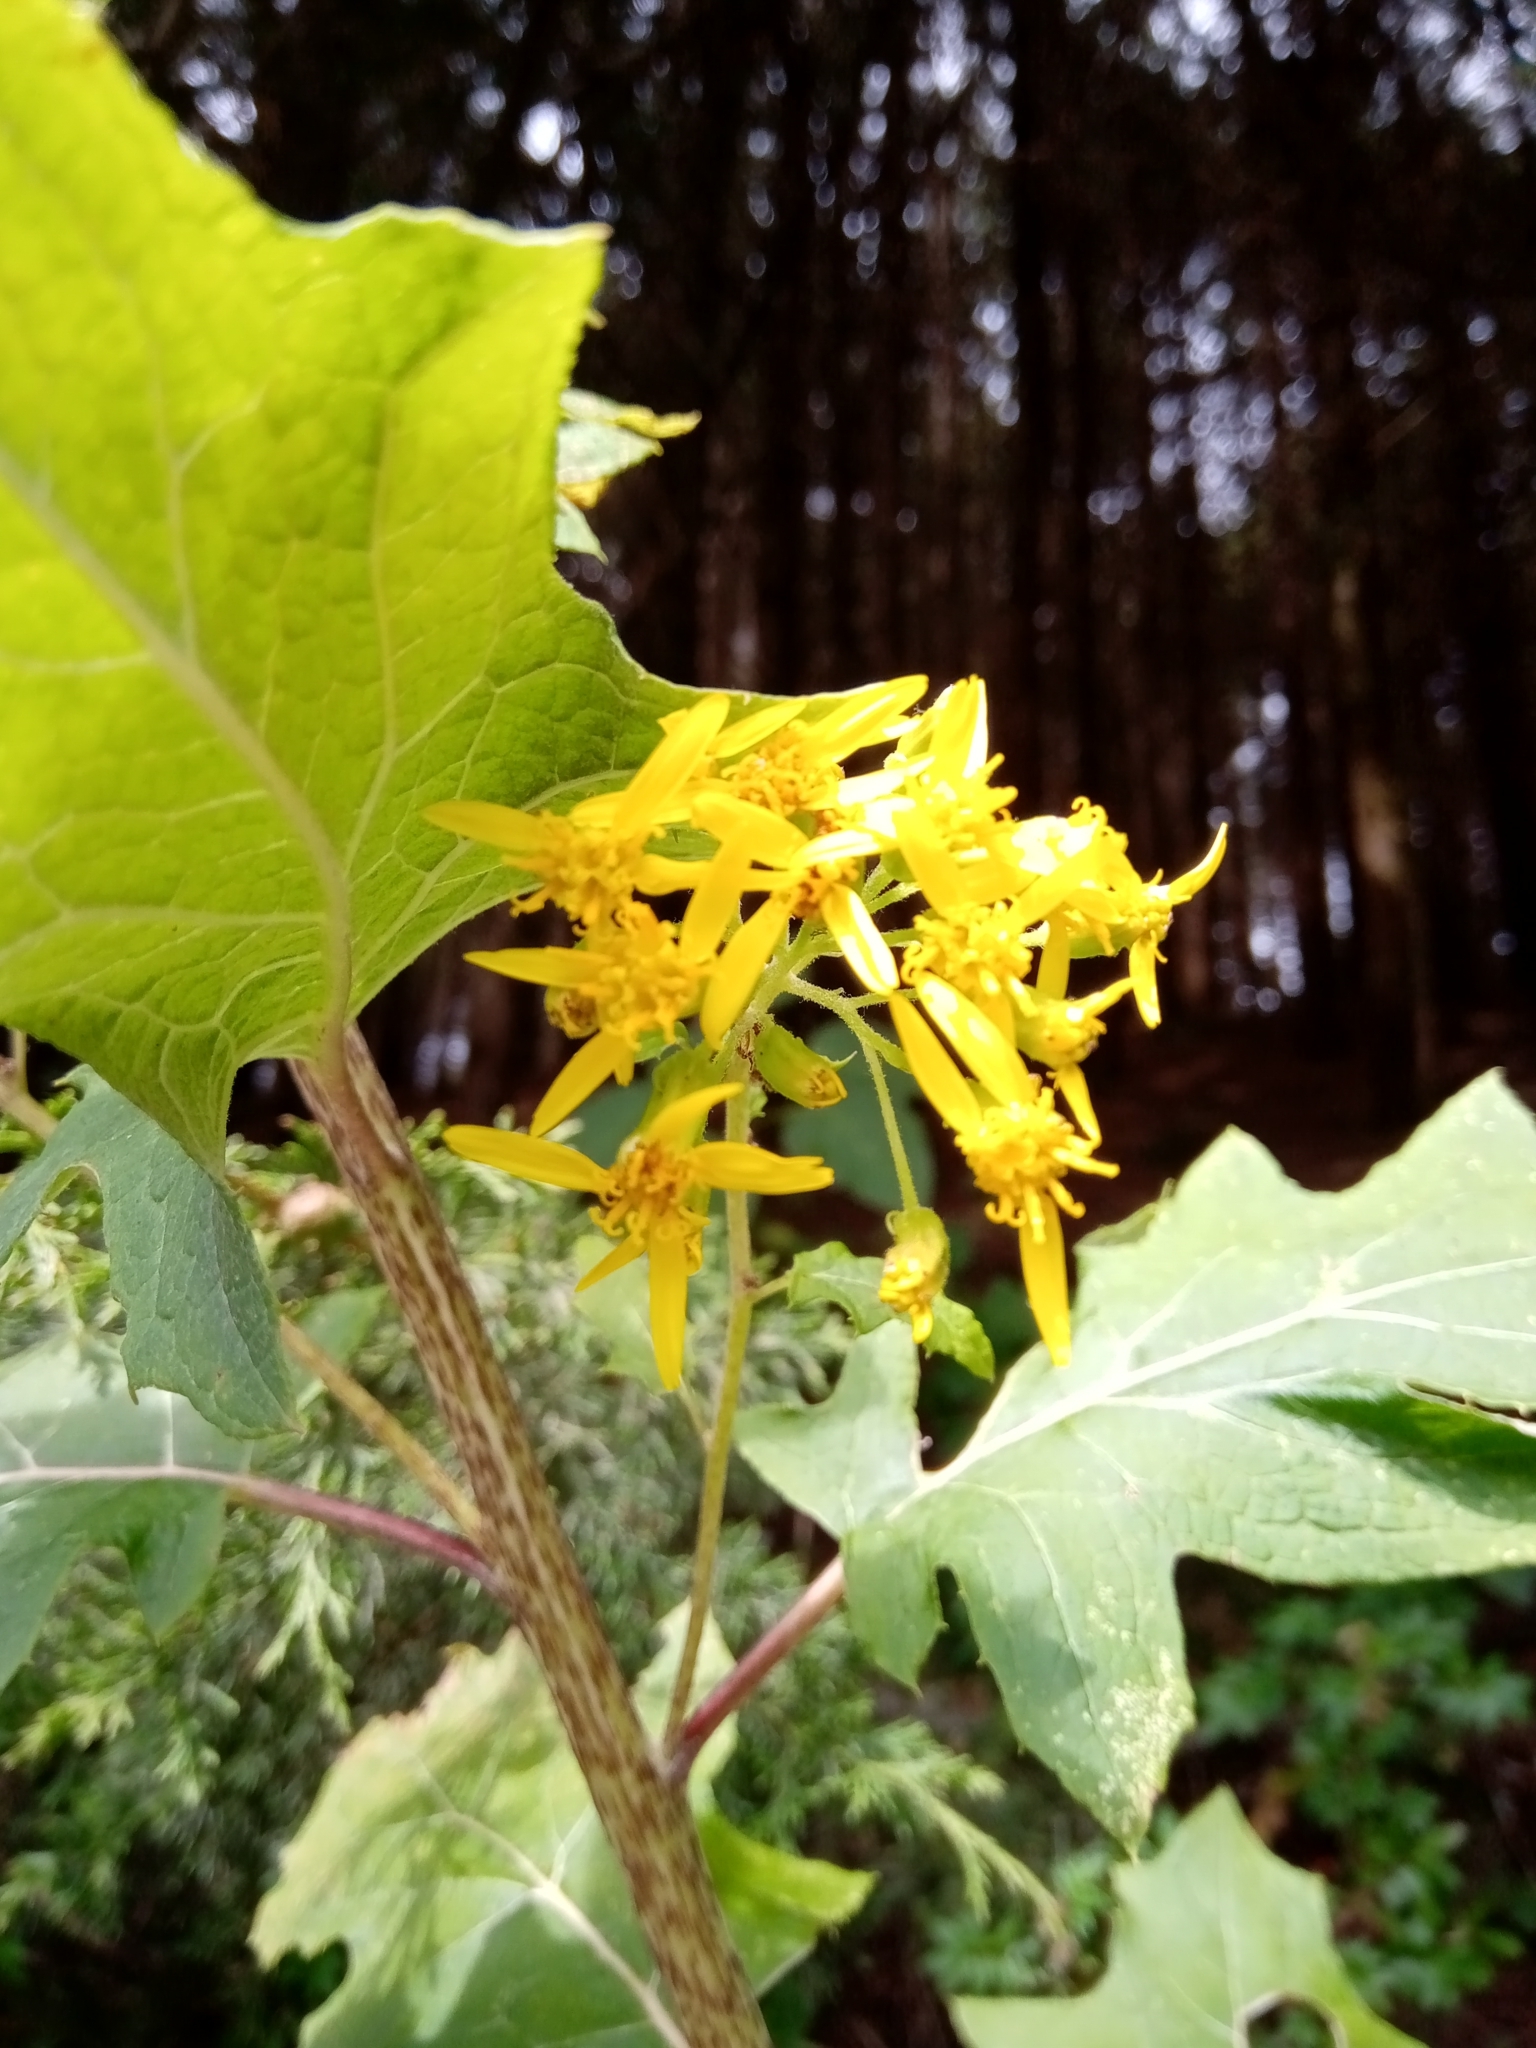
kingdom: Plantae
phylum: Tracheophyta
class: Magnoliopsida
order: Asterales
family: Asteraceae
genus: Roldana
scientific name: Roldana candicans
